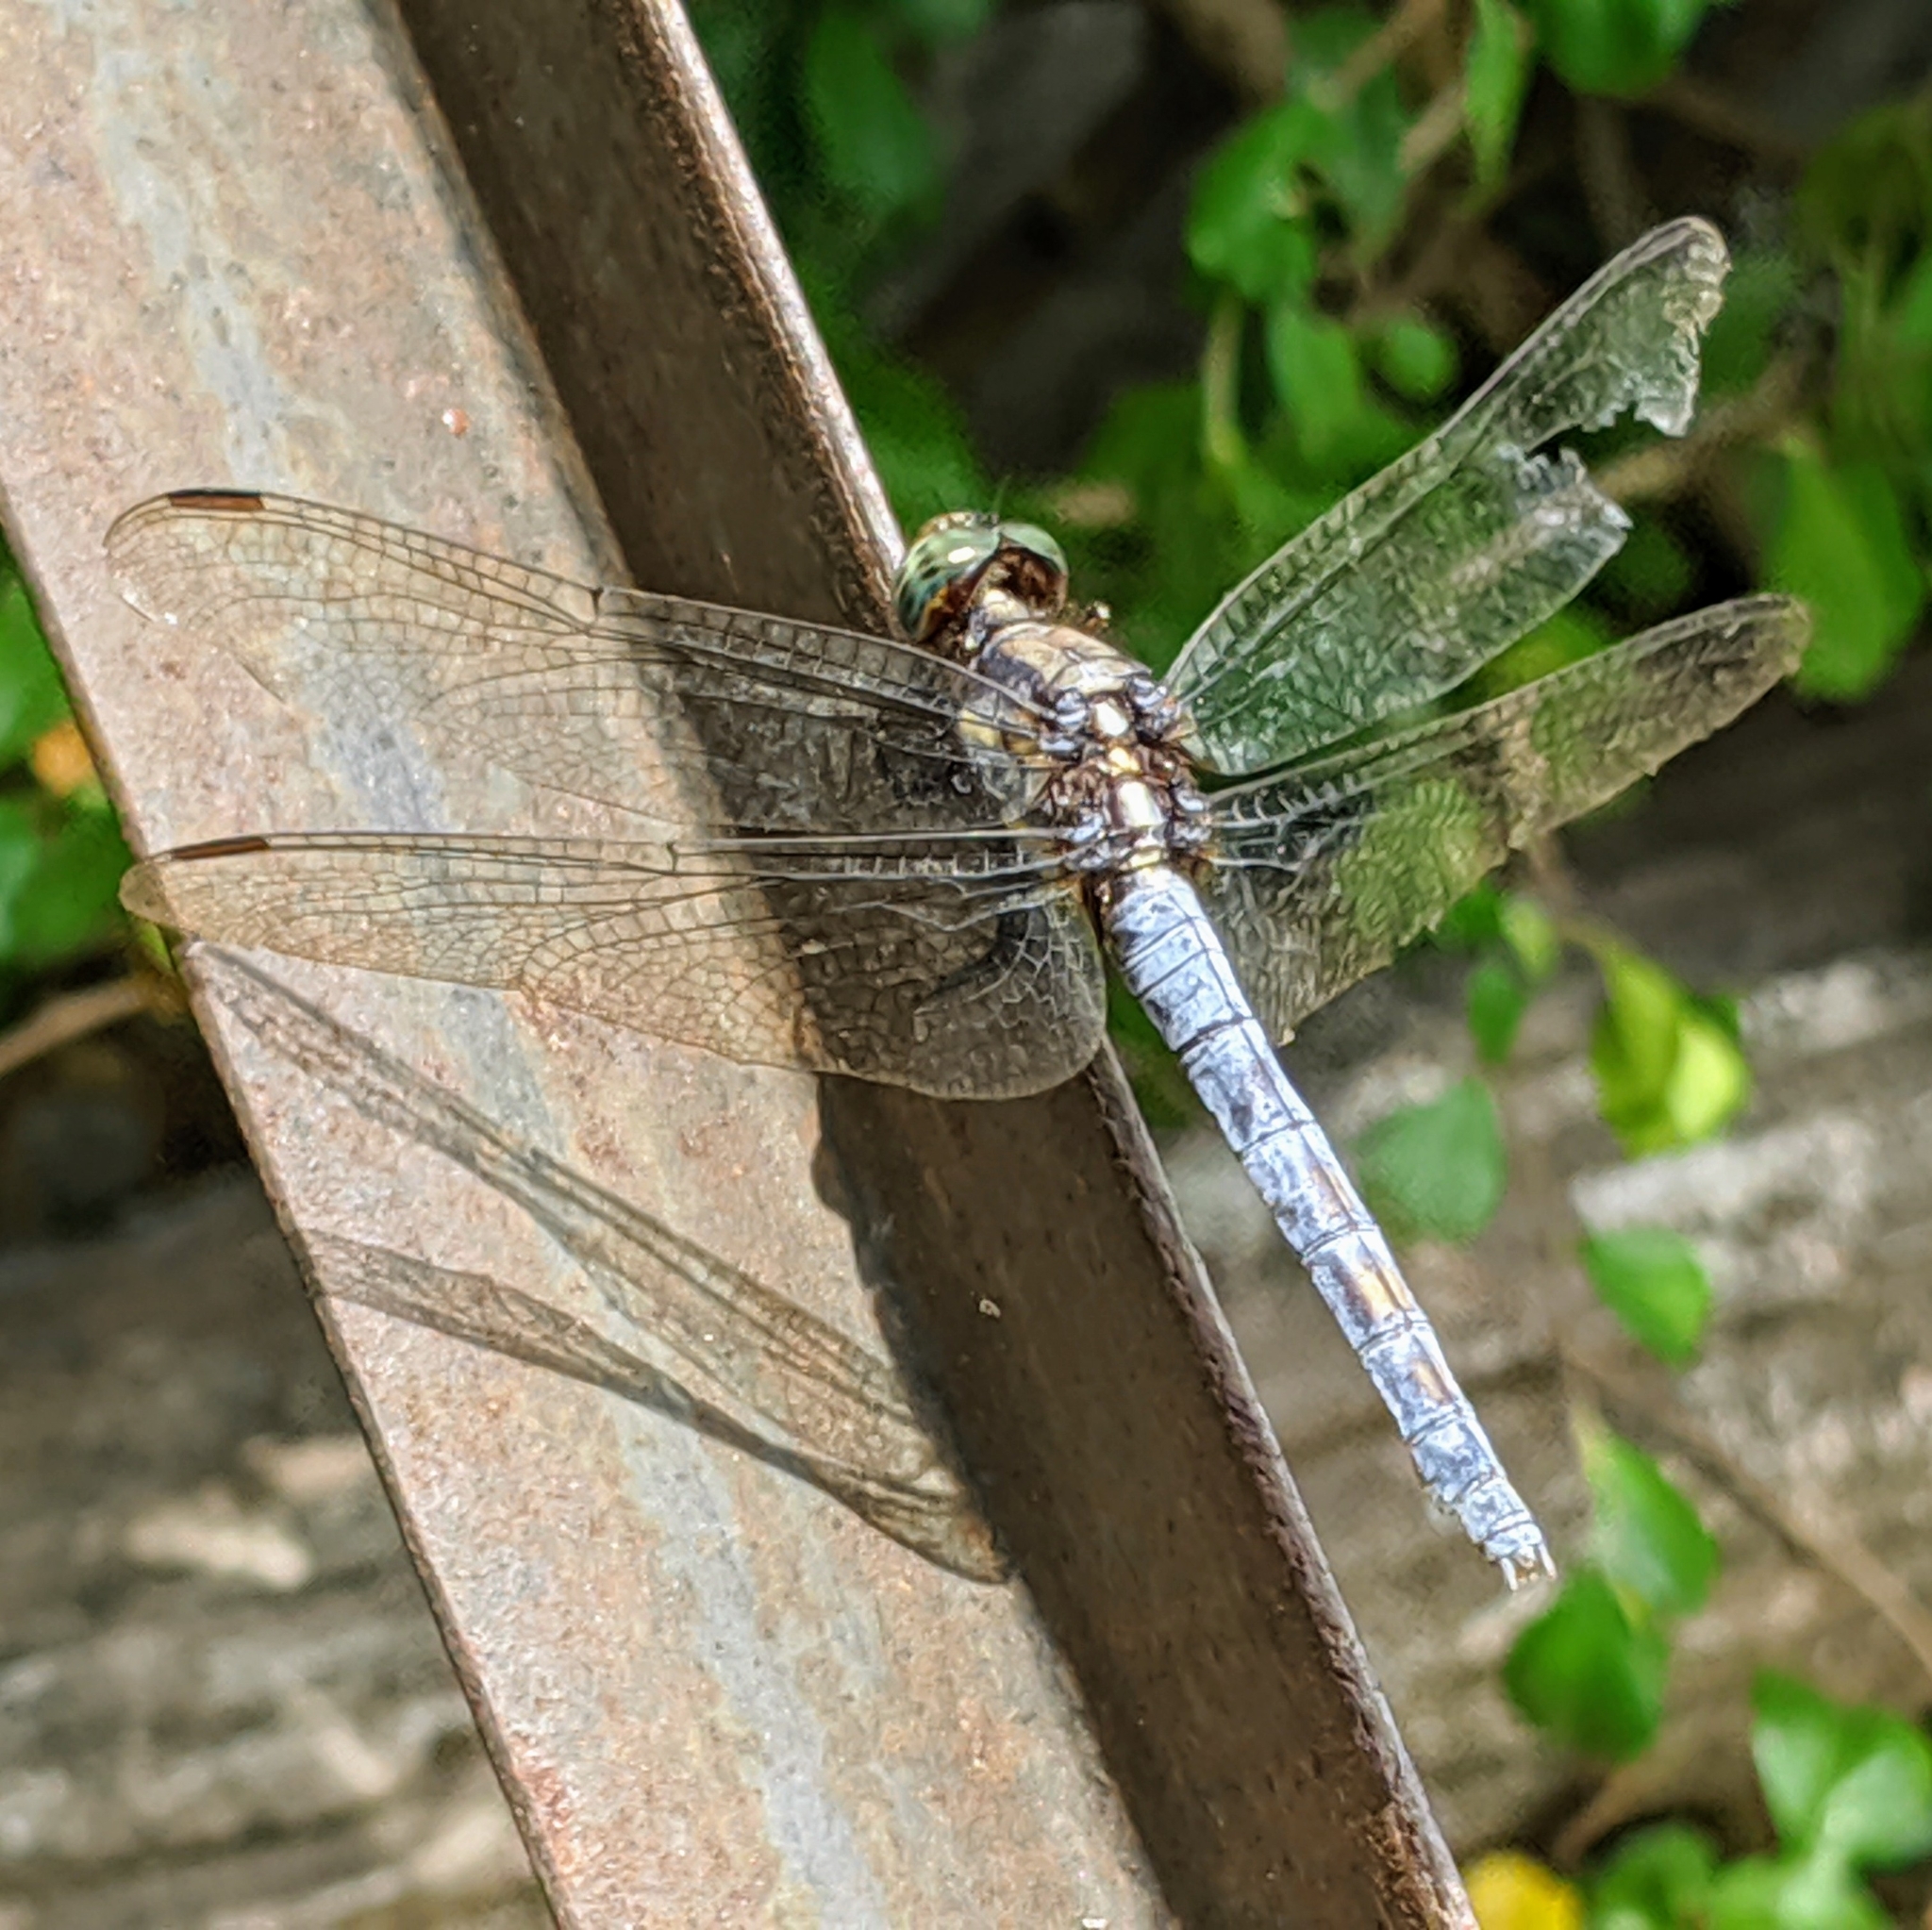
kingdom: Animalia
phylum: Arthropoda
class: Insecta
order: Odonata
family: Libellulidae
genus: Orthetrum
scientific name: Orthetrum glaucum
